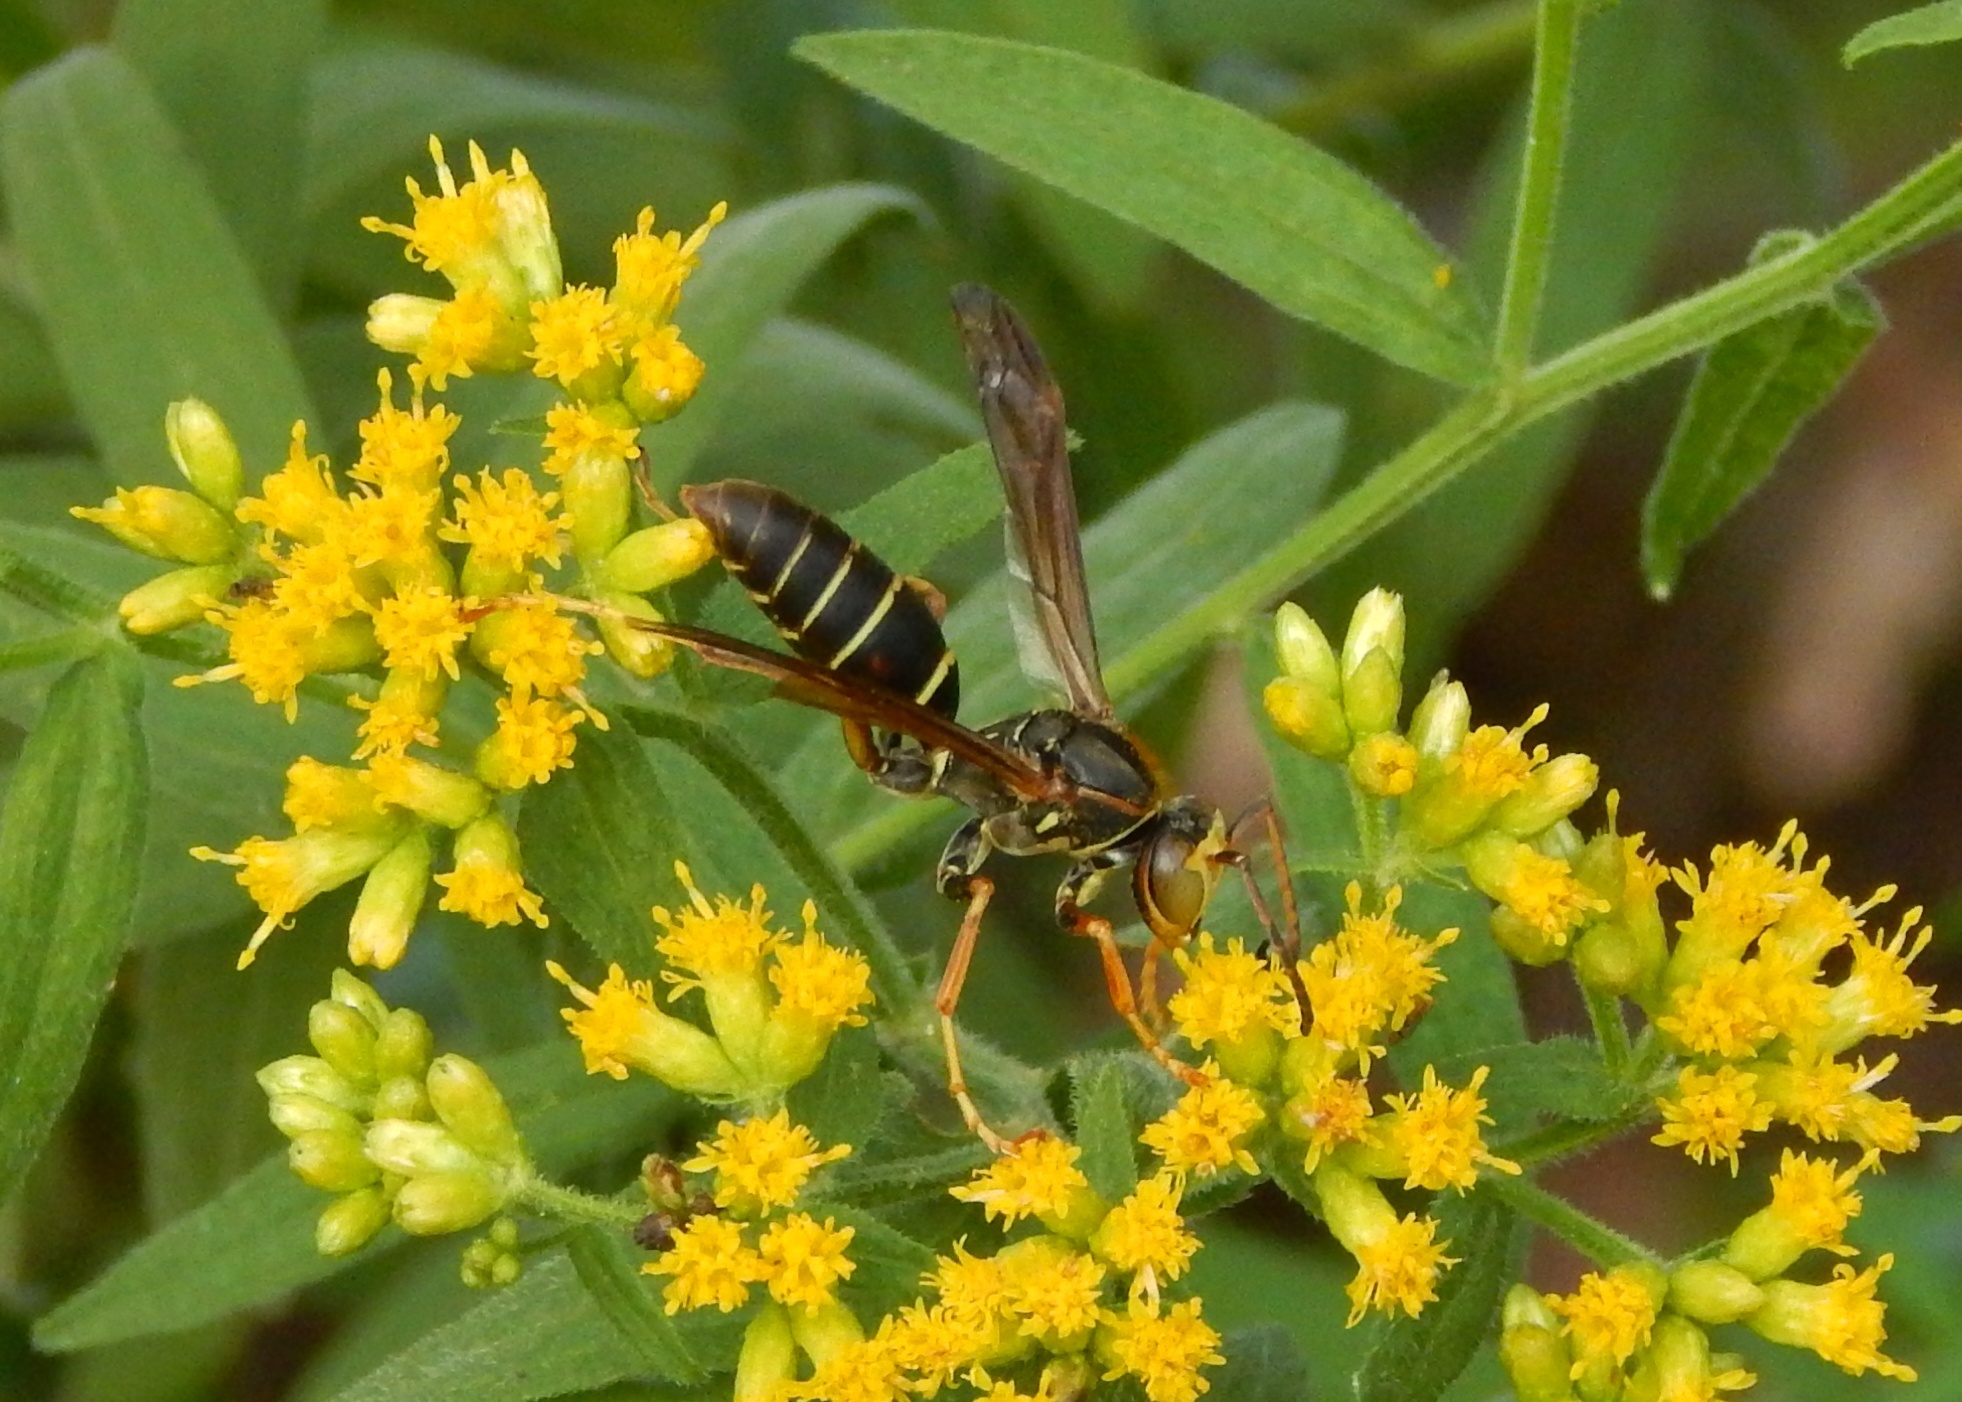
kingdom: Animalia
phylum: Arthropoda
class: Insecta
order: Hymenoptera
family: Eumenidae
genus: Polistes
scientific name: Polistes fuscatus
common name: Dark paper wasp
